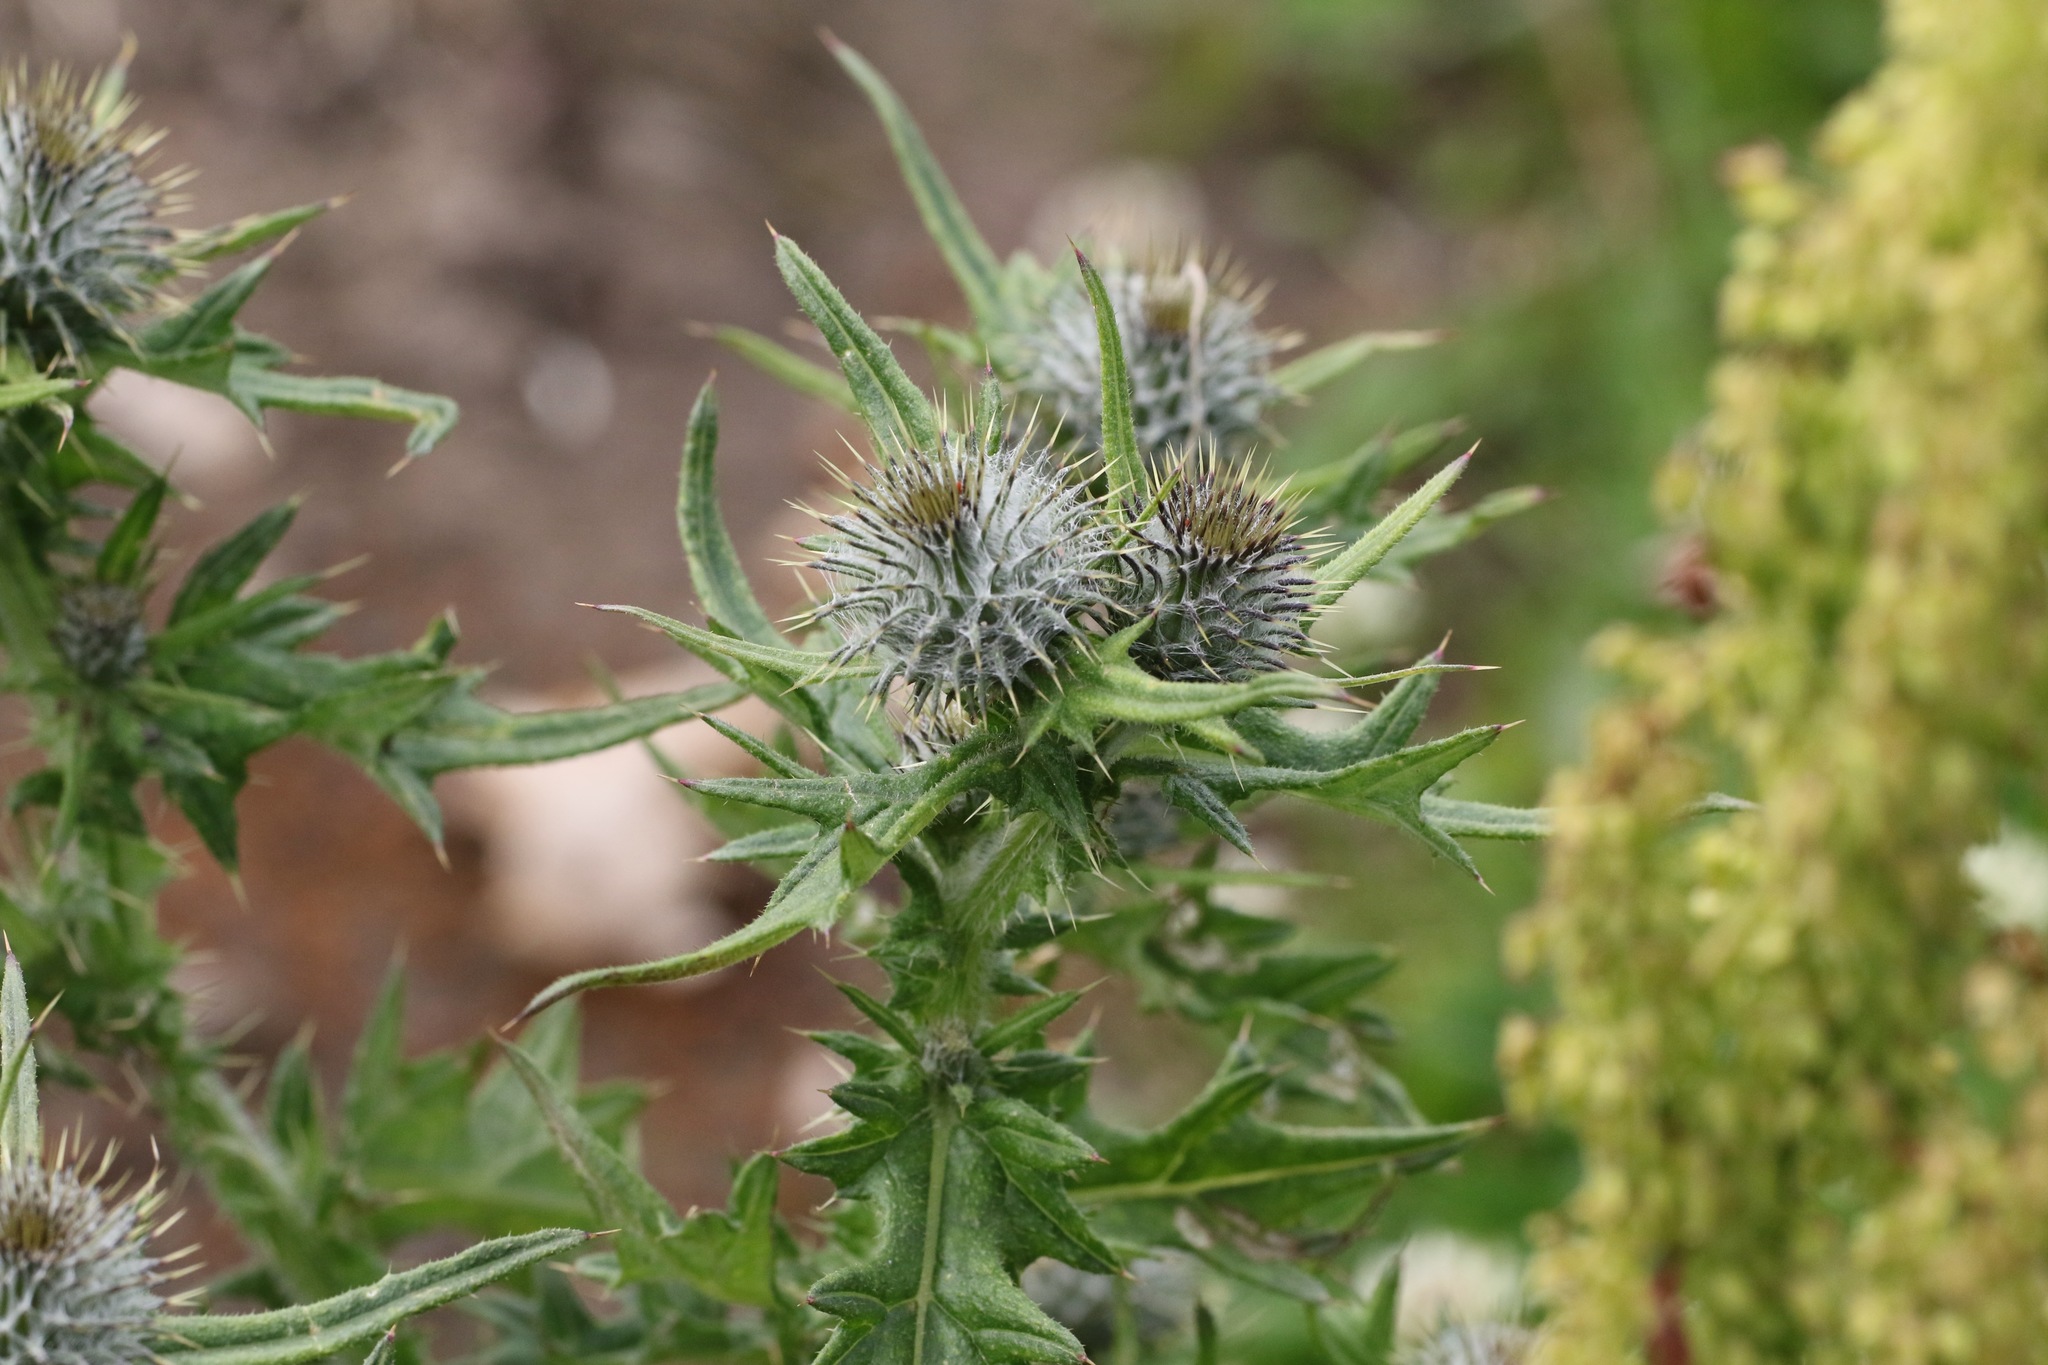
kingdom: Plantae
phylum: Tracheophyta
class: Magnoliopsida
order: Asterales
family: Asteraceae
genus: Cirsium
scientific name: Cirsium vulgare
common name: Bull thistle
